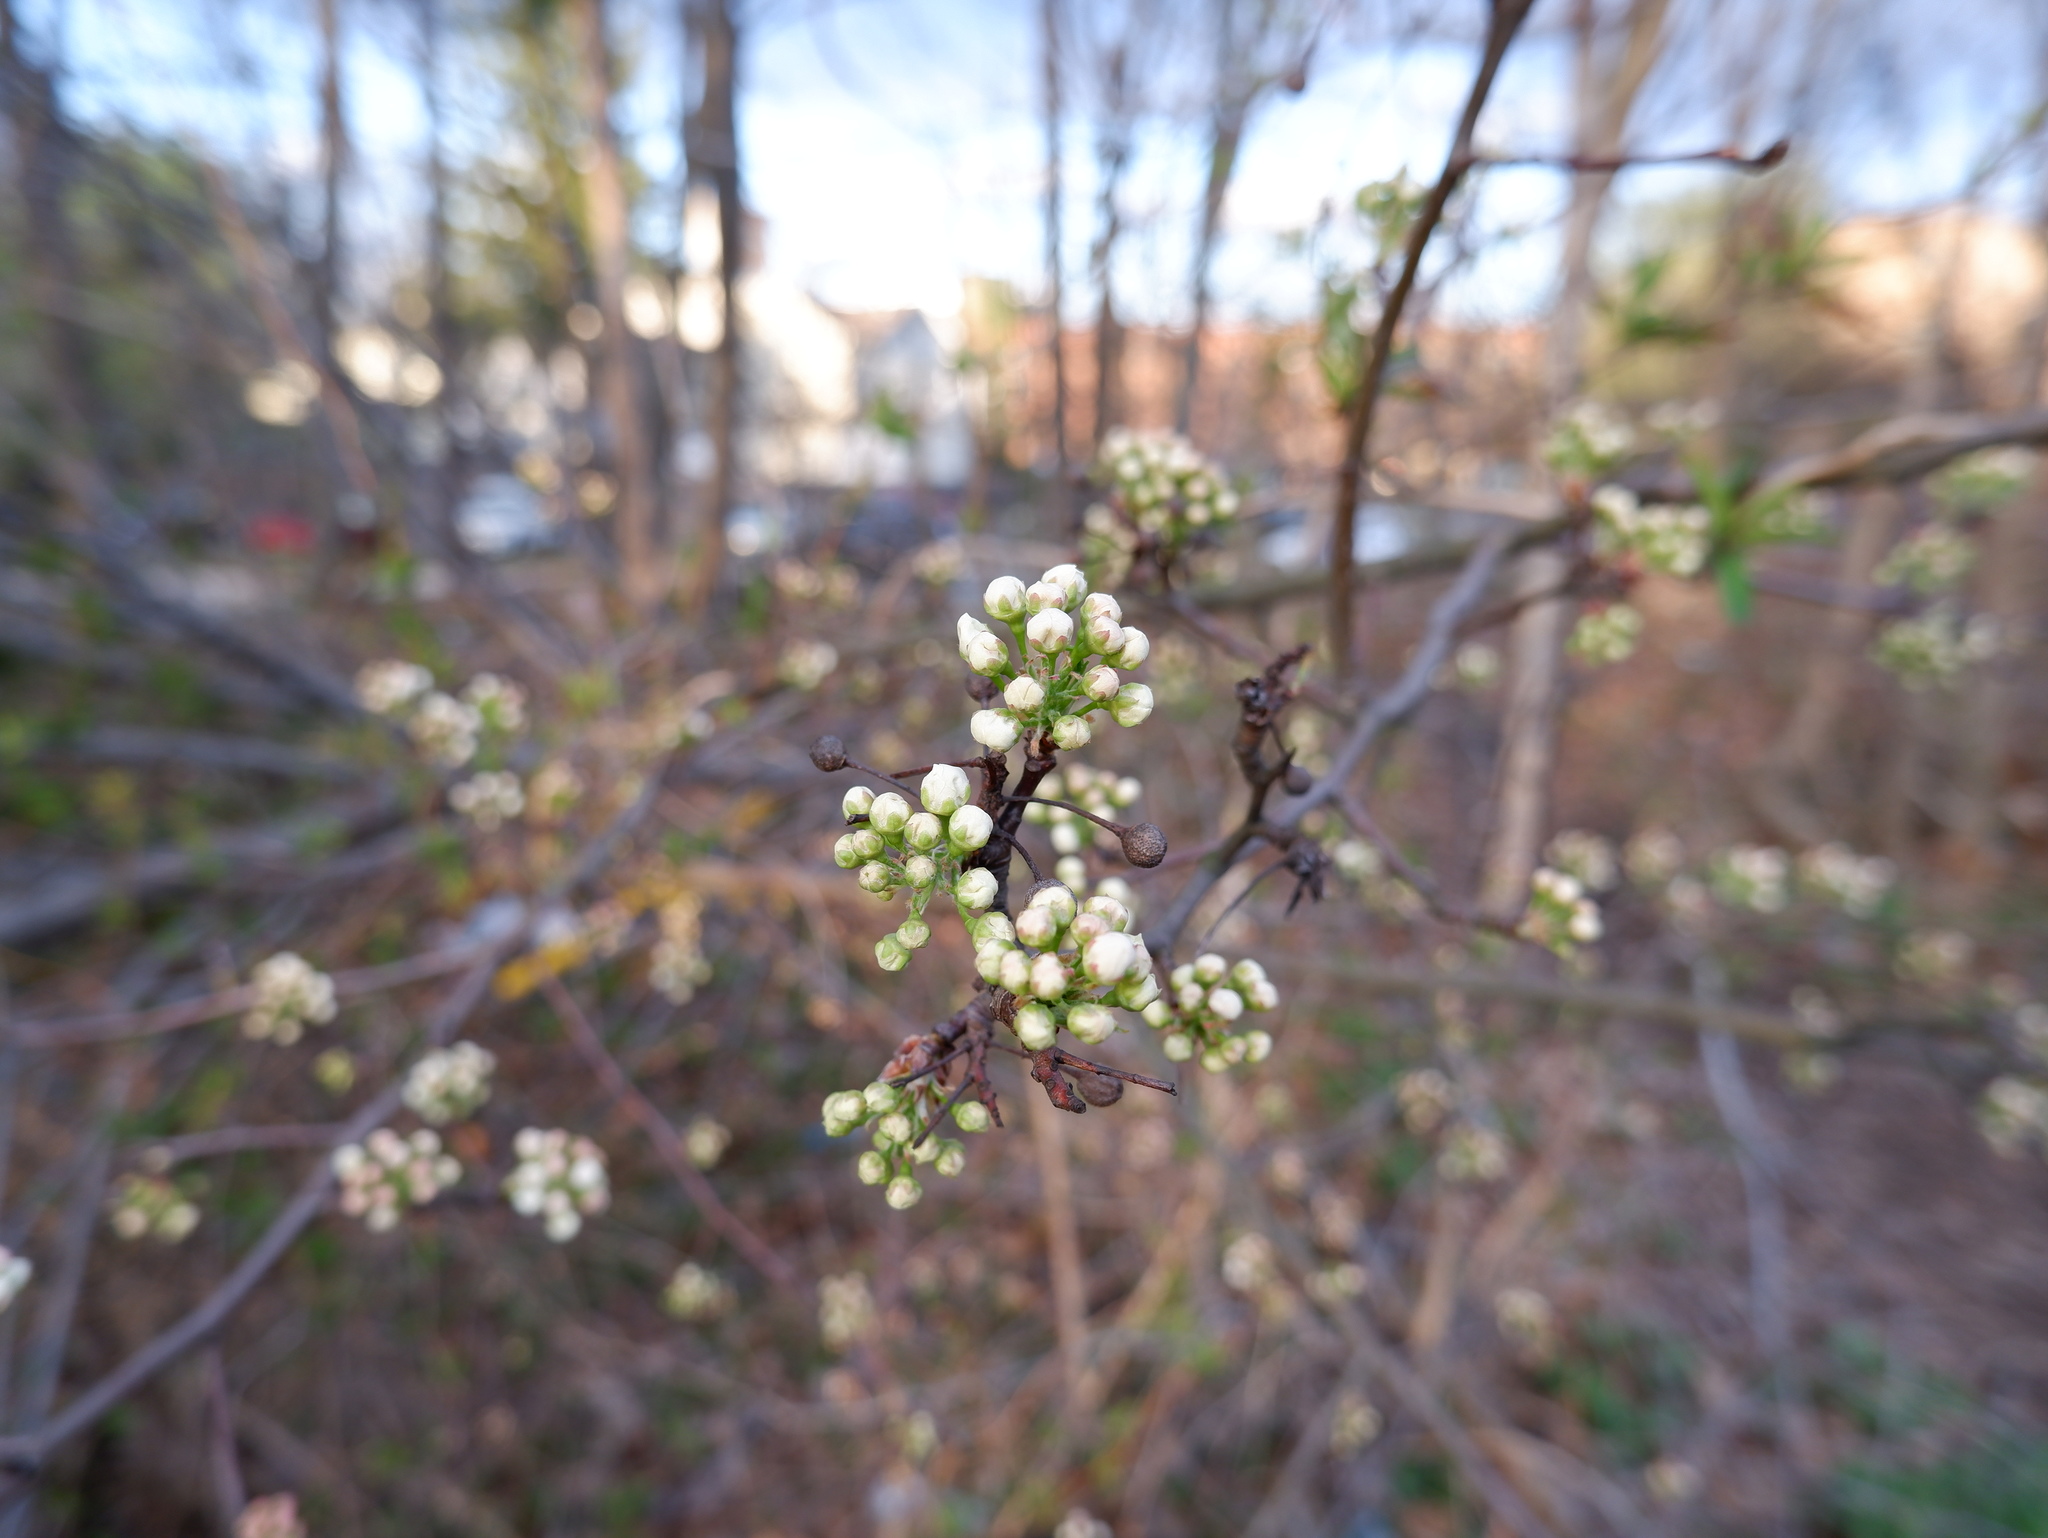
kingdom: Plantae
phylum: Tracheophyta
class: Magnoliopsida
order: Rosales
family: Rosaceae
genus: Pyrus
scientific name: Pyrus calleryana
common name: Callery pear
